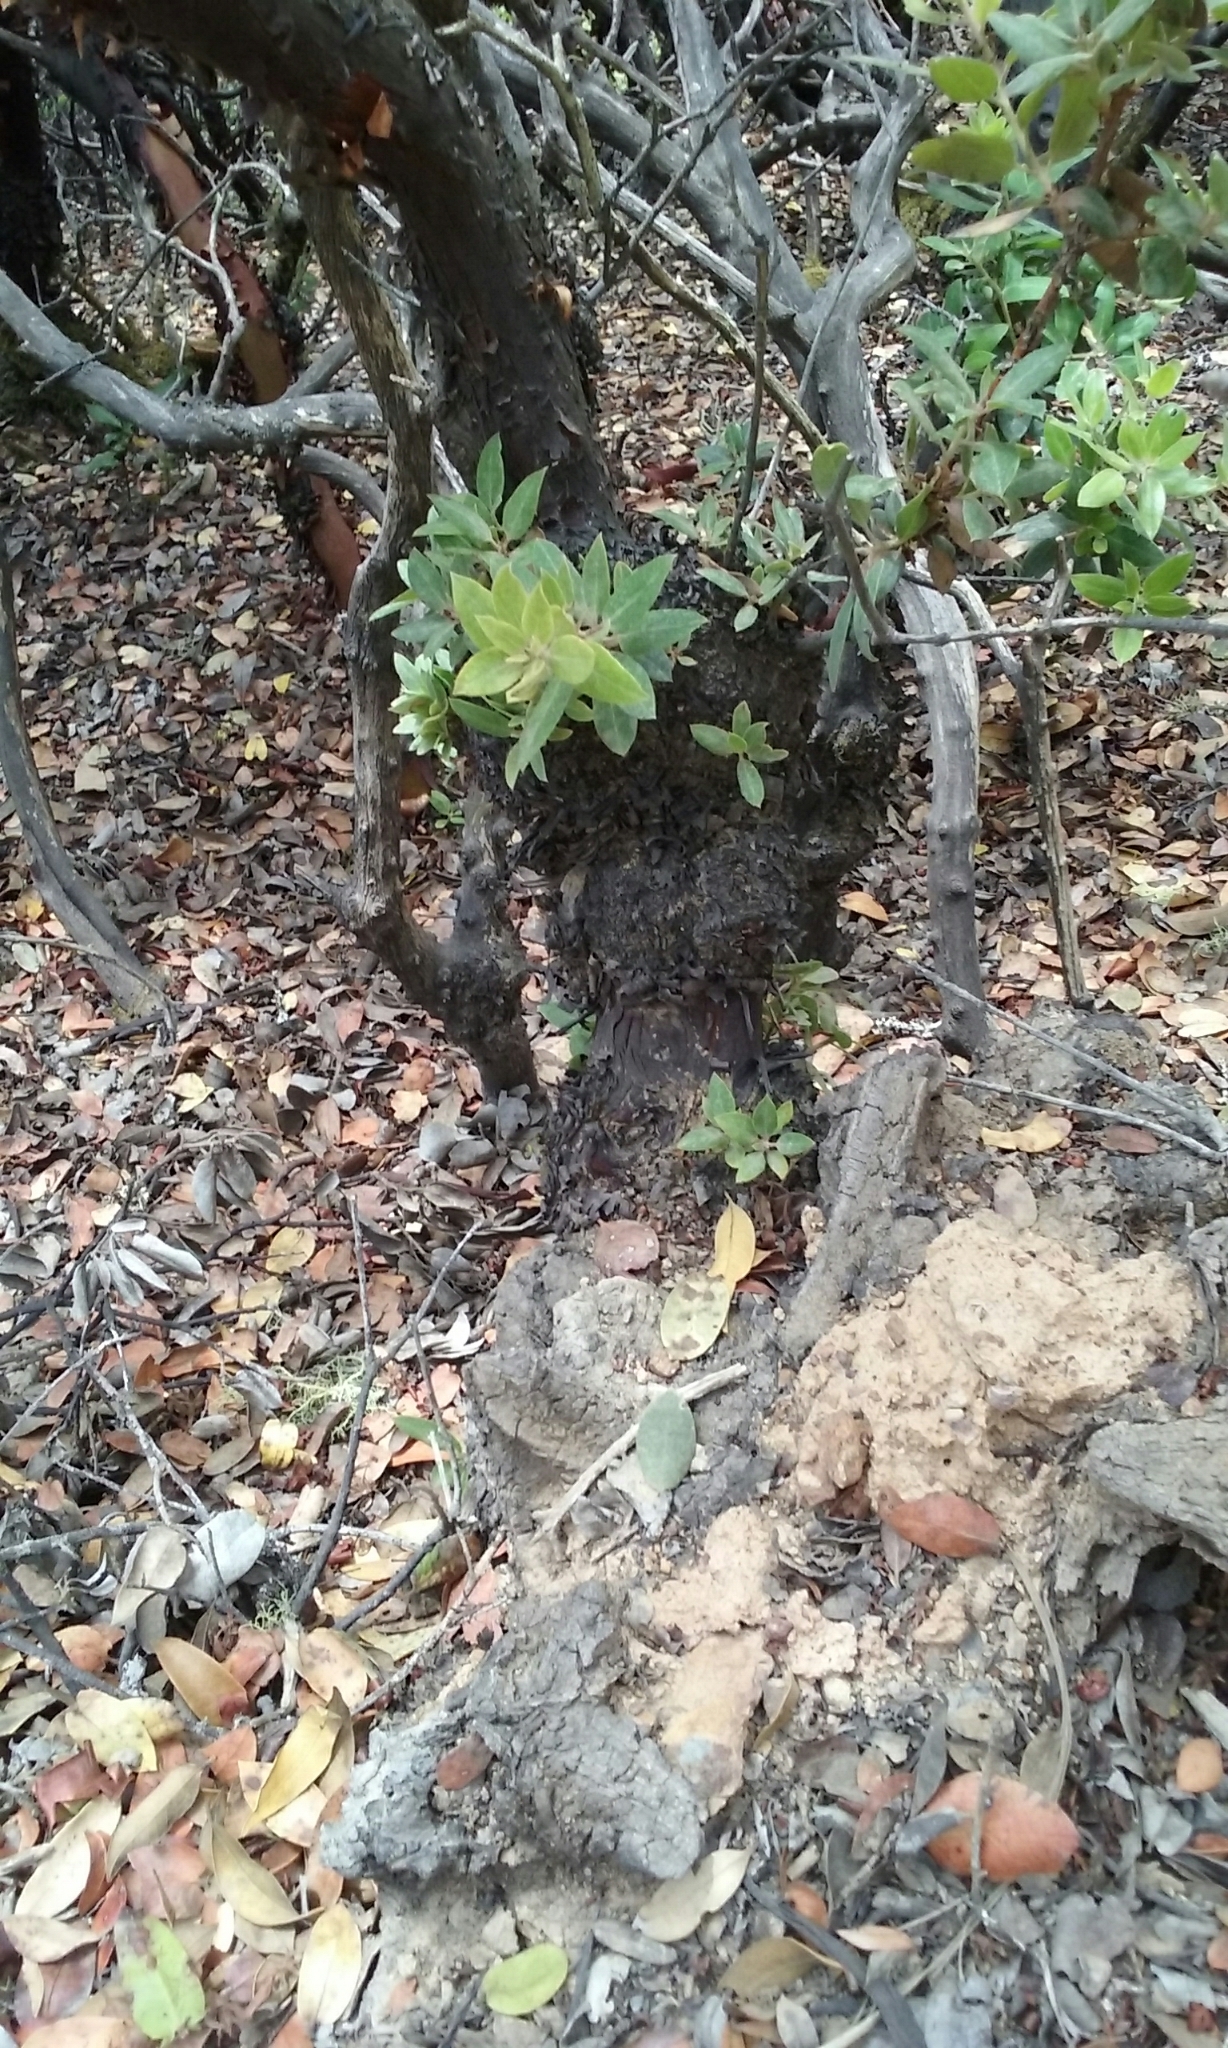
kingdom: Plantae
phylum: Tracheophyta
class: Magnoliopsida
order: Ericales
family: Ericaceae
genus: Arctostaphylos
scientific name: Arctostaphylos crustacea
